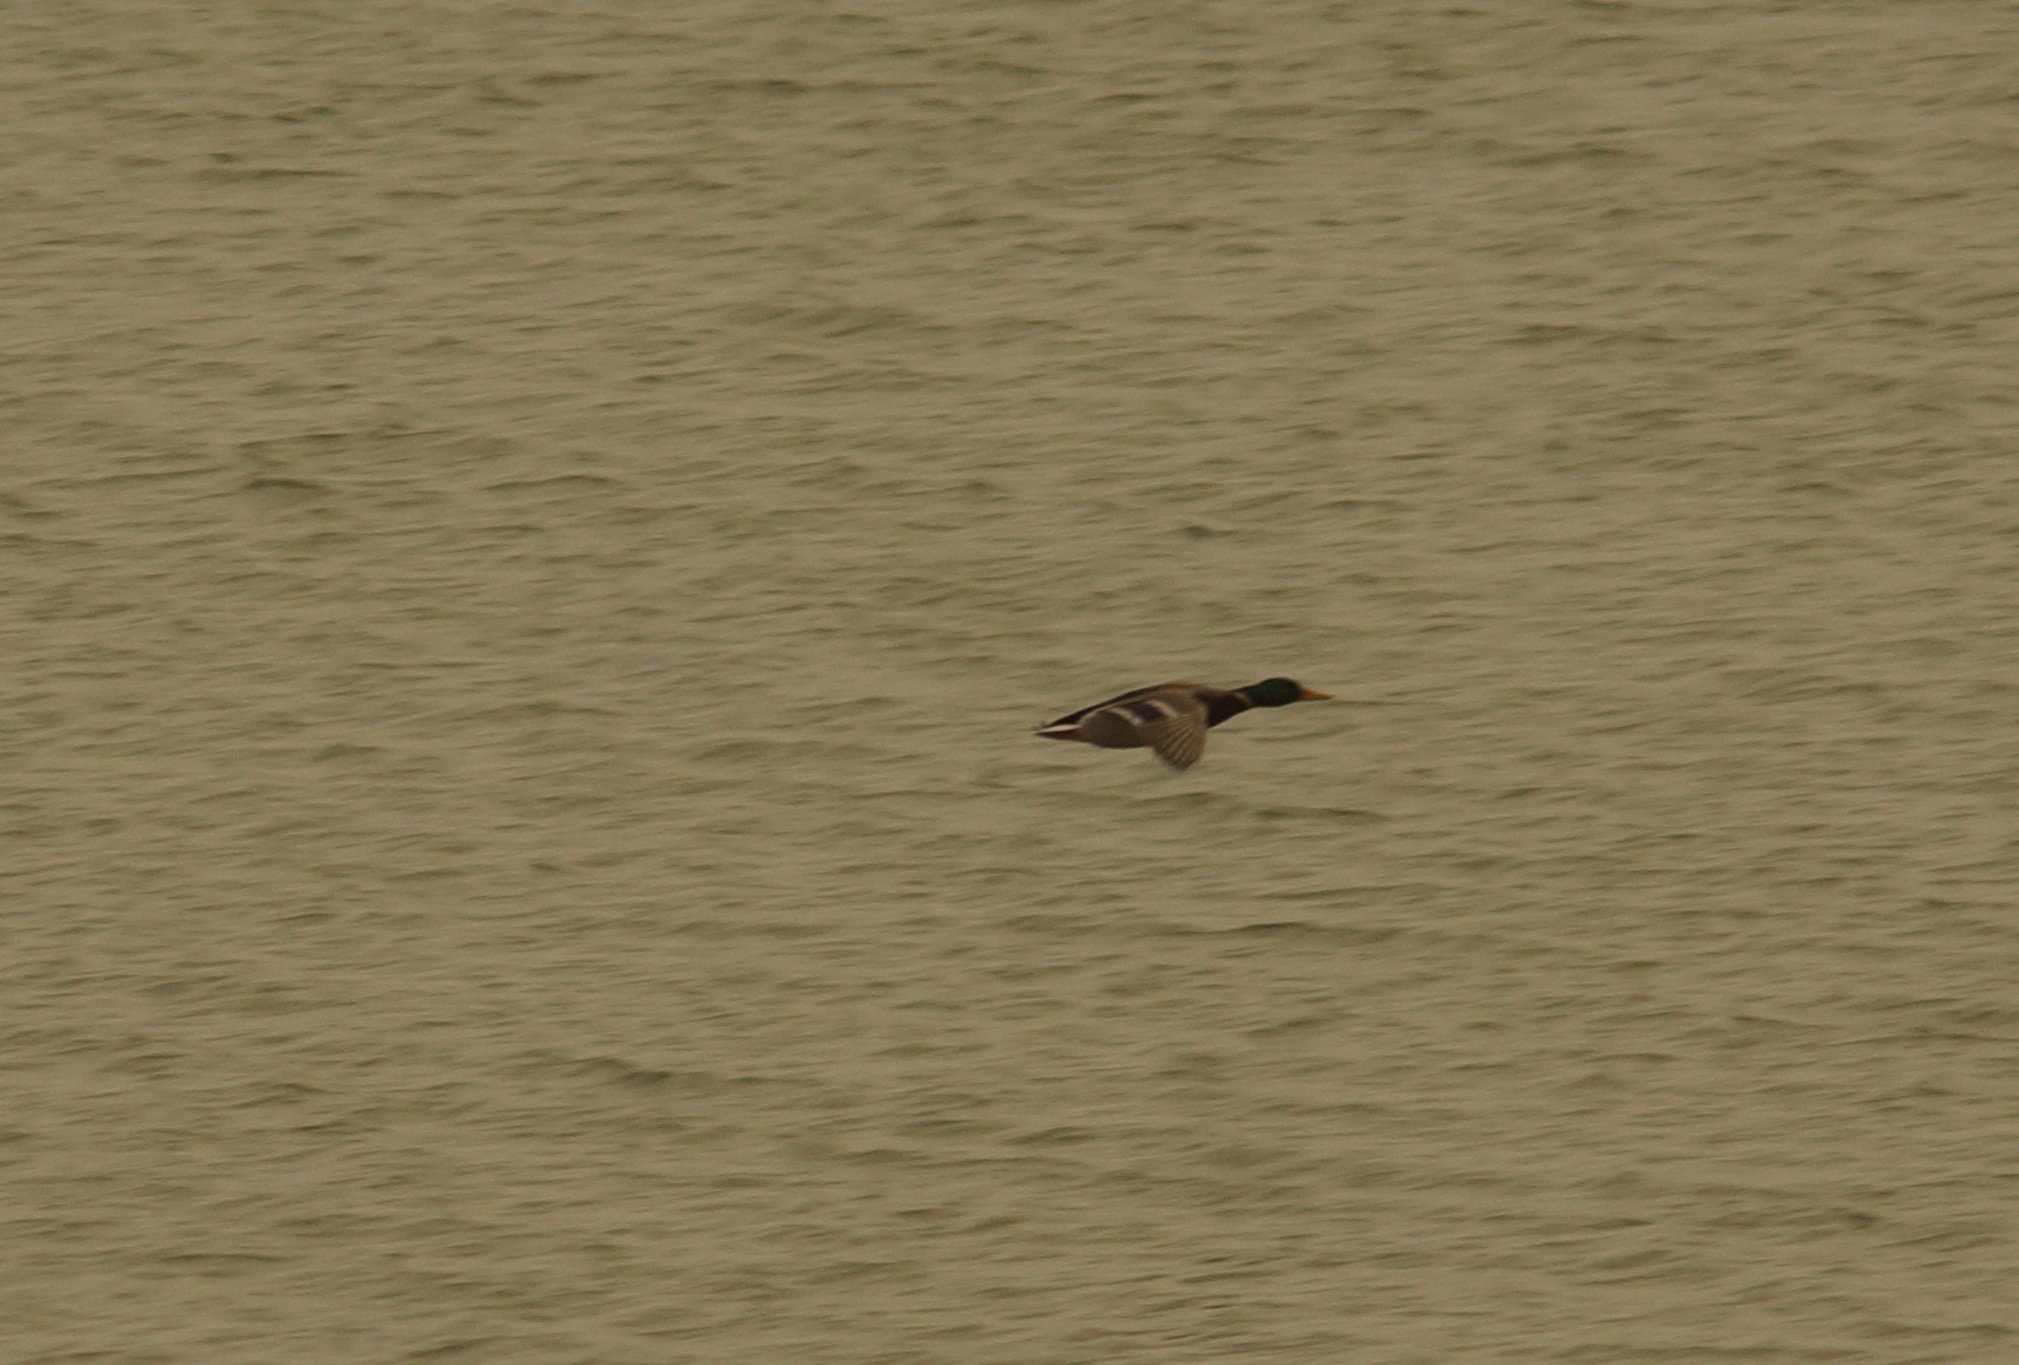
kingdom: Animalia
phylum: Chordata
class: Aves
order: Anseriformes
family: Anatidae
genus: Anas
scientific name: Anas platyrhynchos
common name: Mallard
